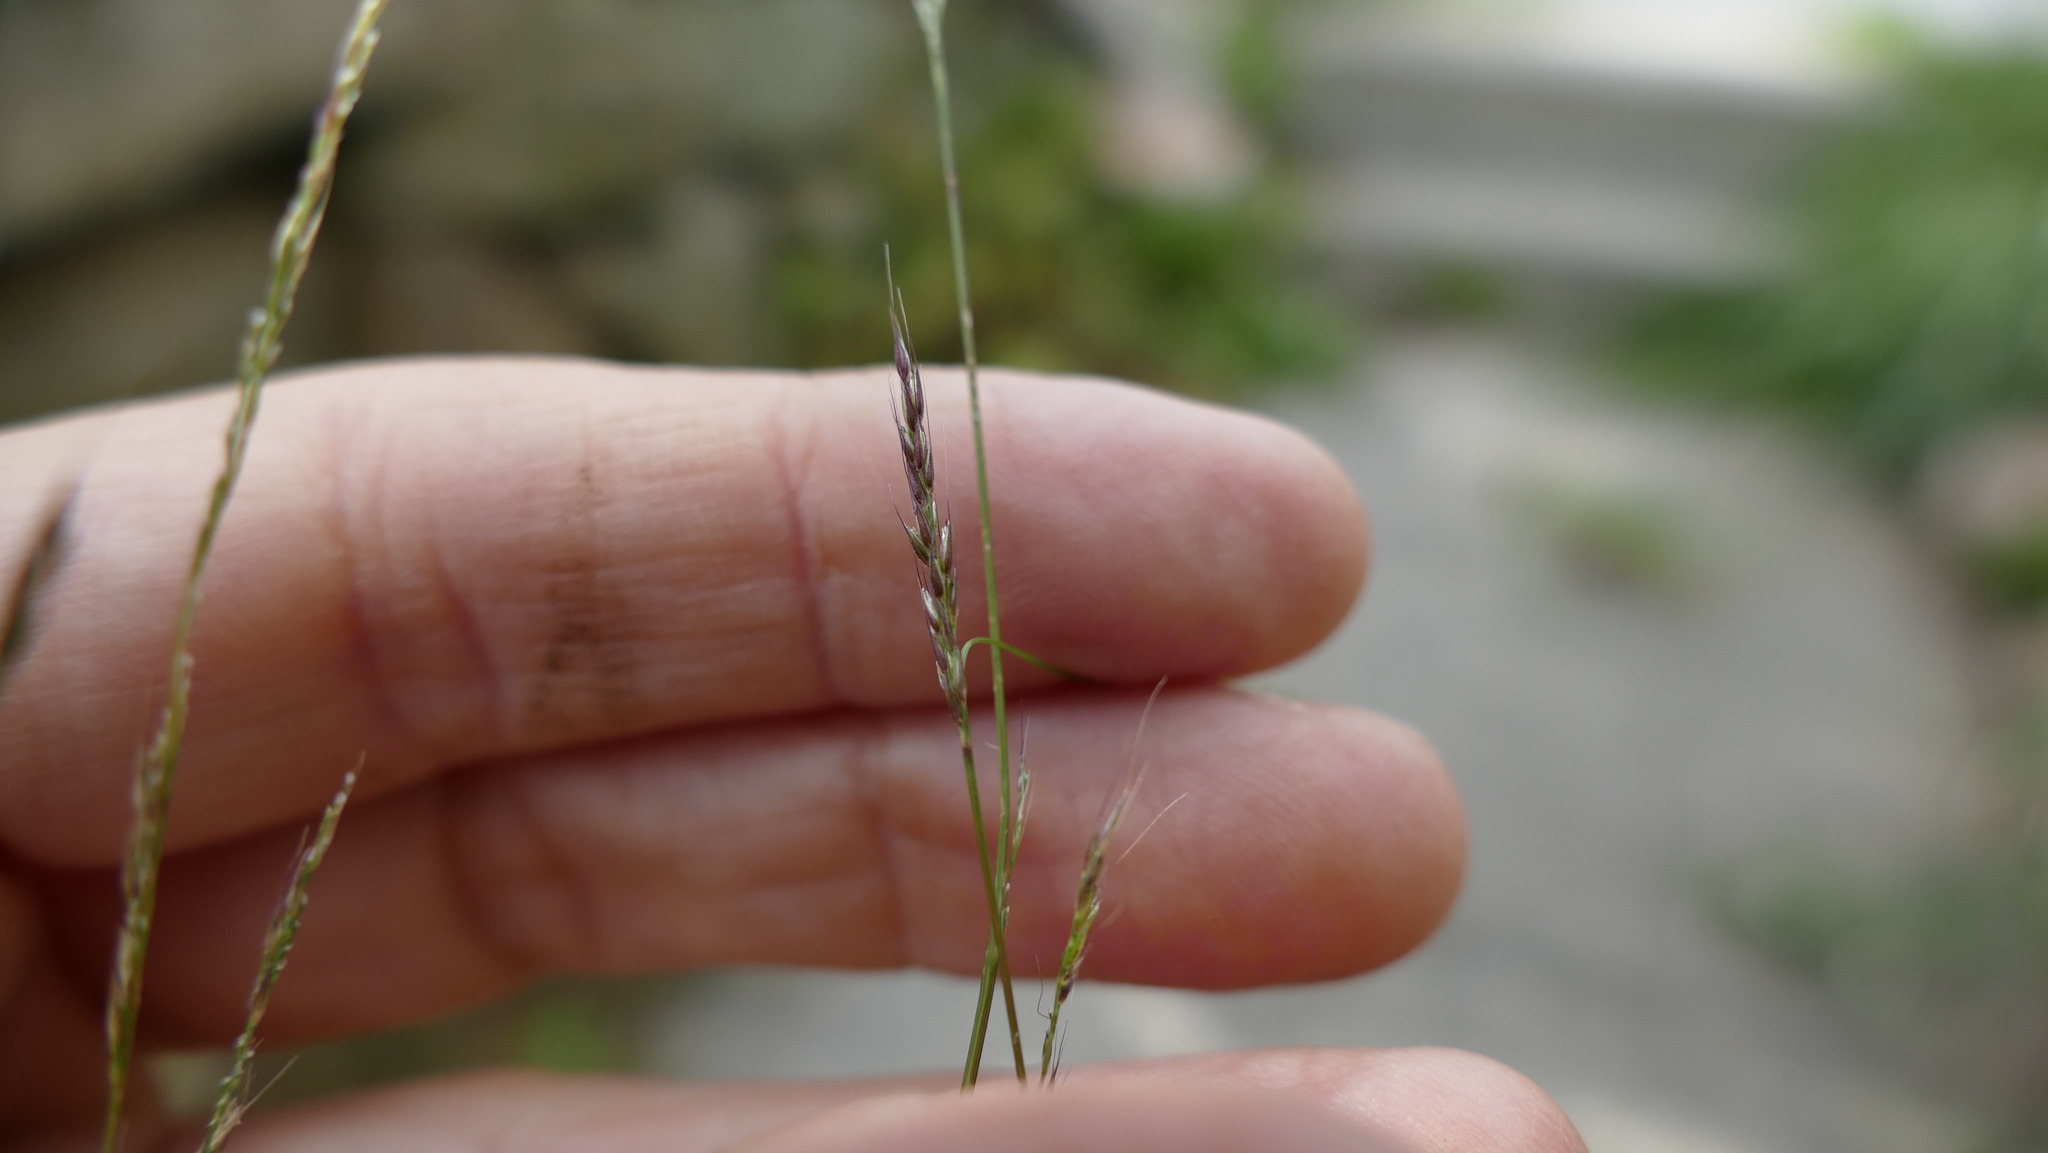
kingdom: Plantae
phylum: Tracheophyta
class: Liliopsida
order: Poales
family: Poaceae
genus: Muhlenbergia
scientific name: Muhlenbergia schreberi
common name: Nimblewill
